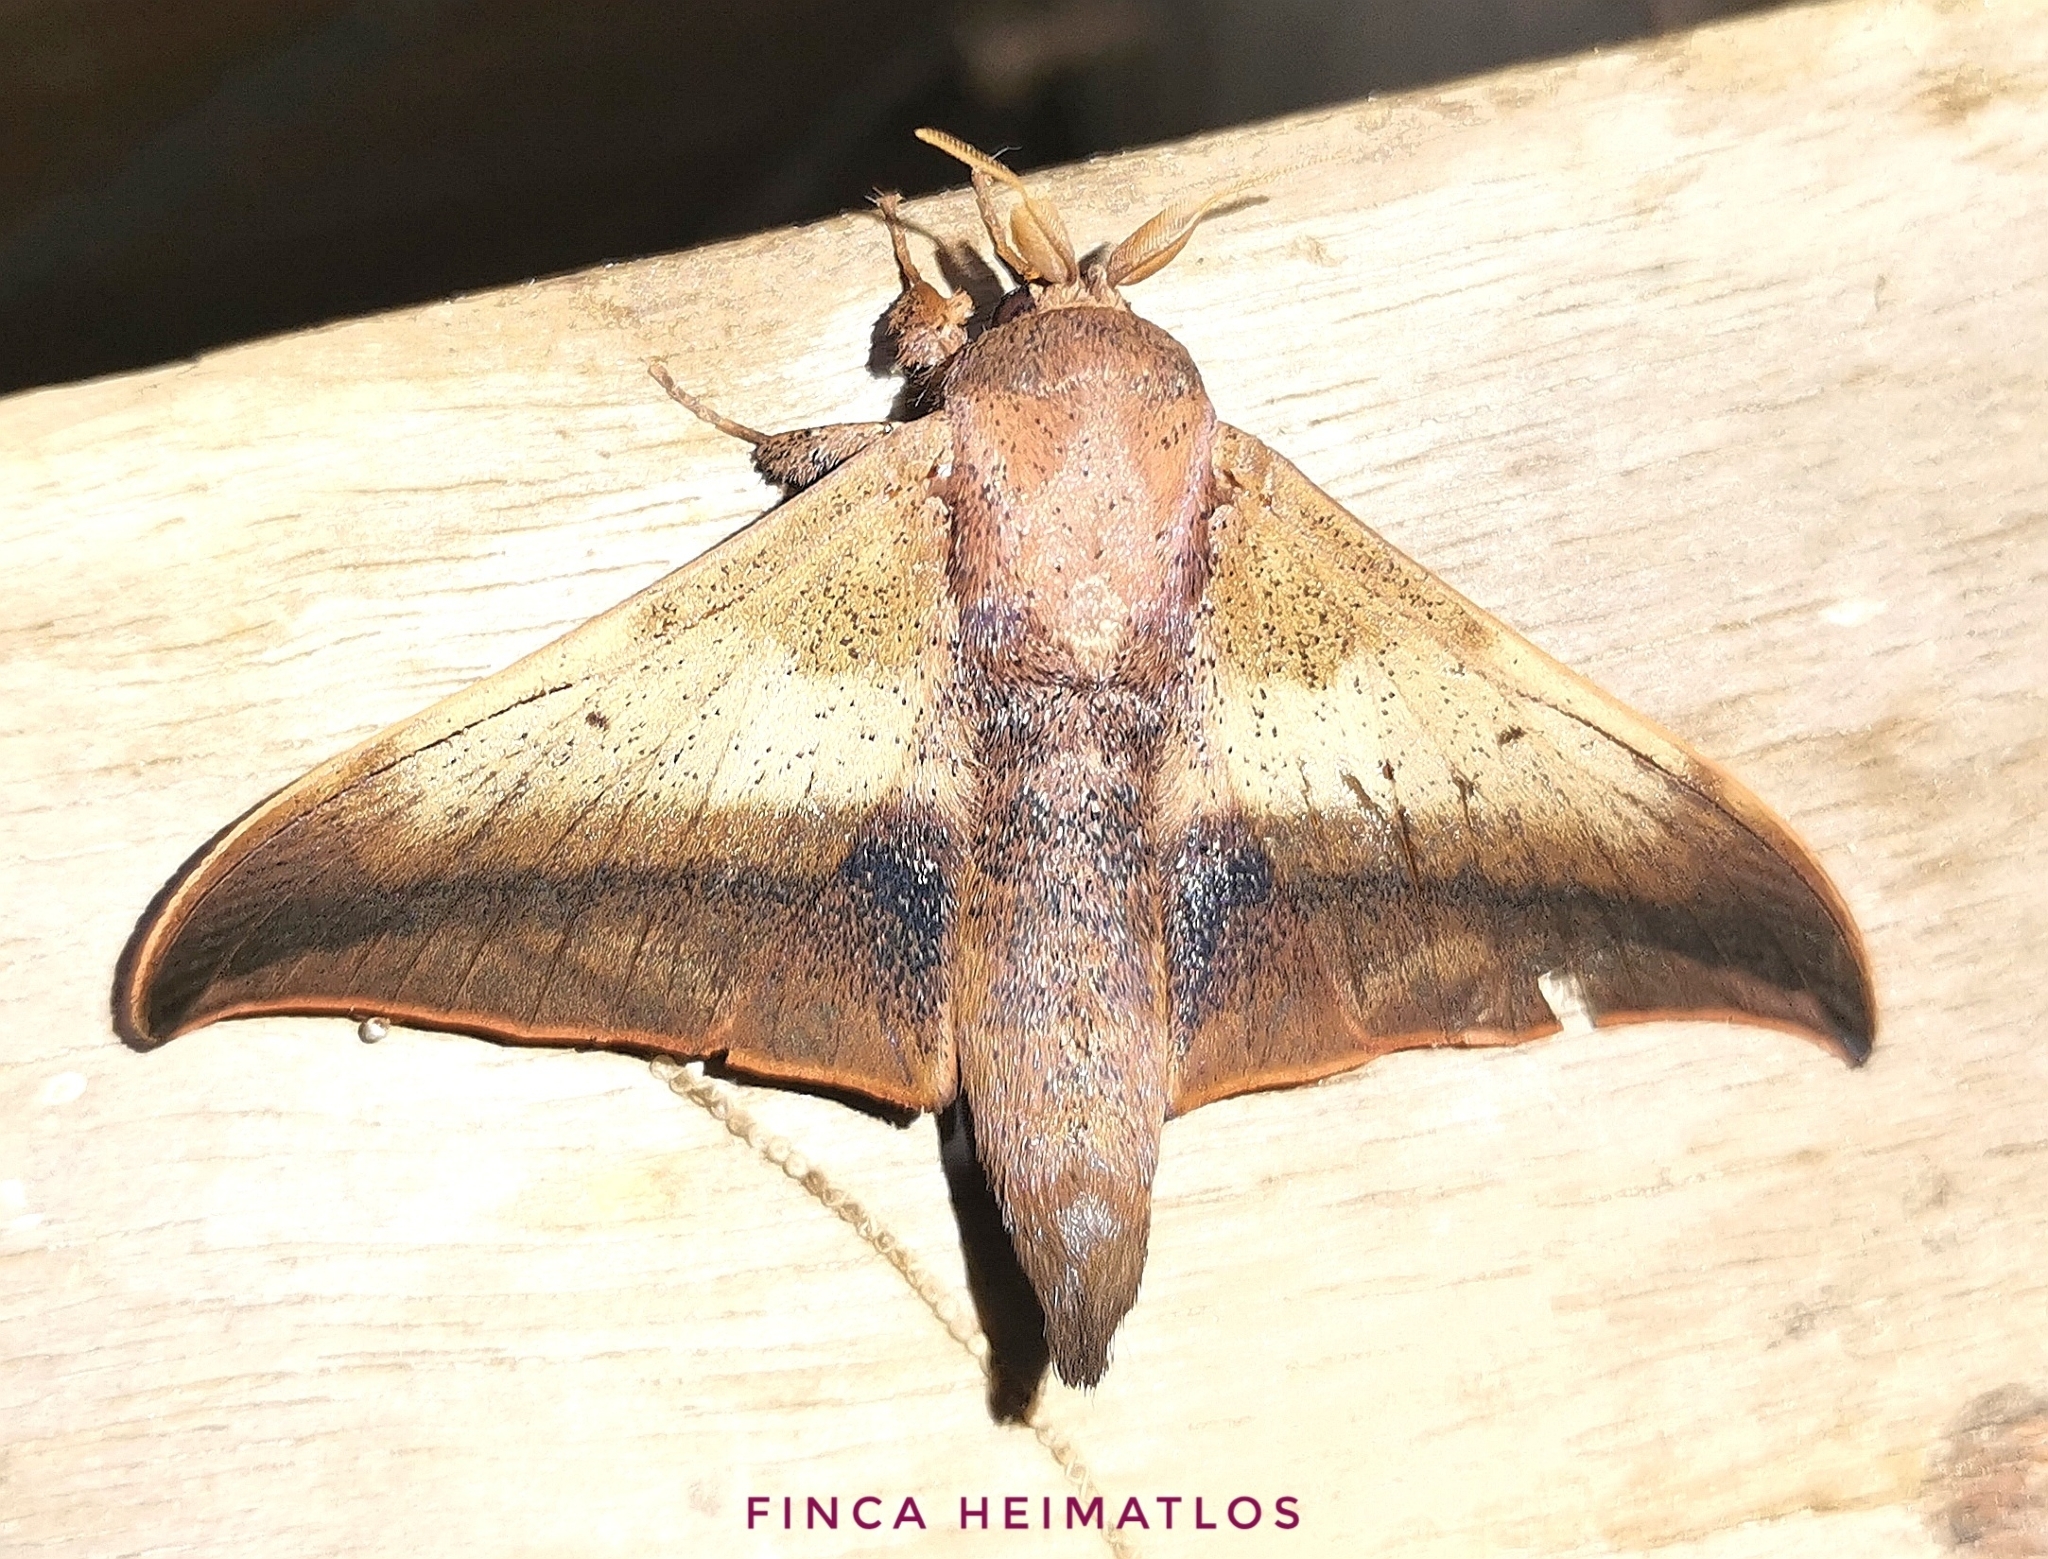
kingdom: Animalia
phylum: Arthropoda
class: Insecta
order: Lepidoptera
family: Mimallonidae
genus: Psychocampa
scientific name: Psychocampa
